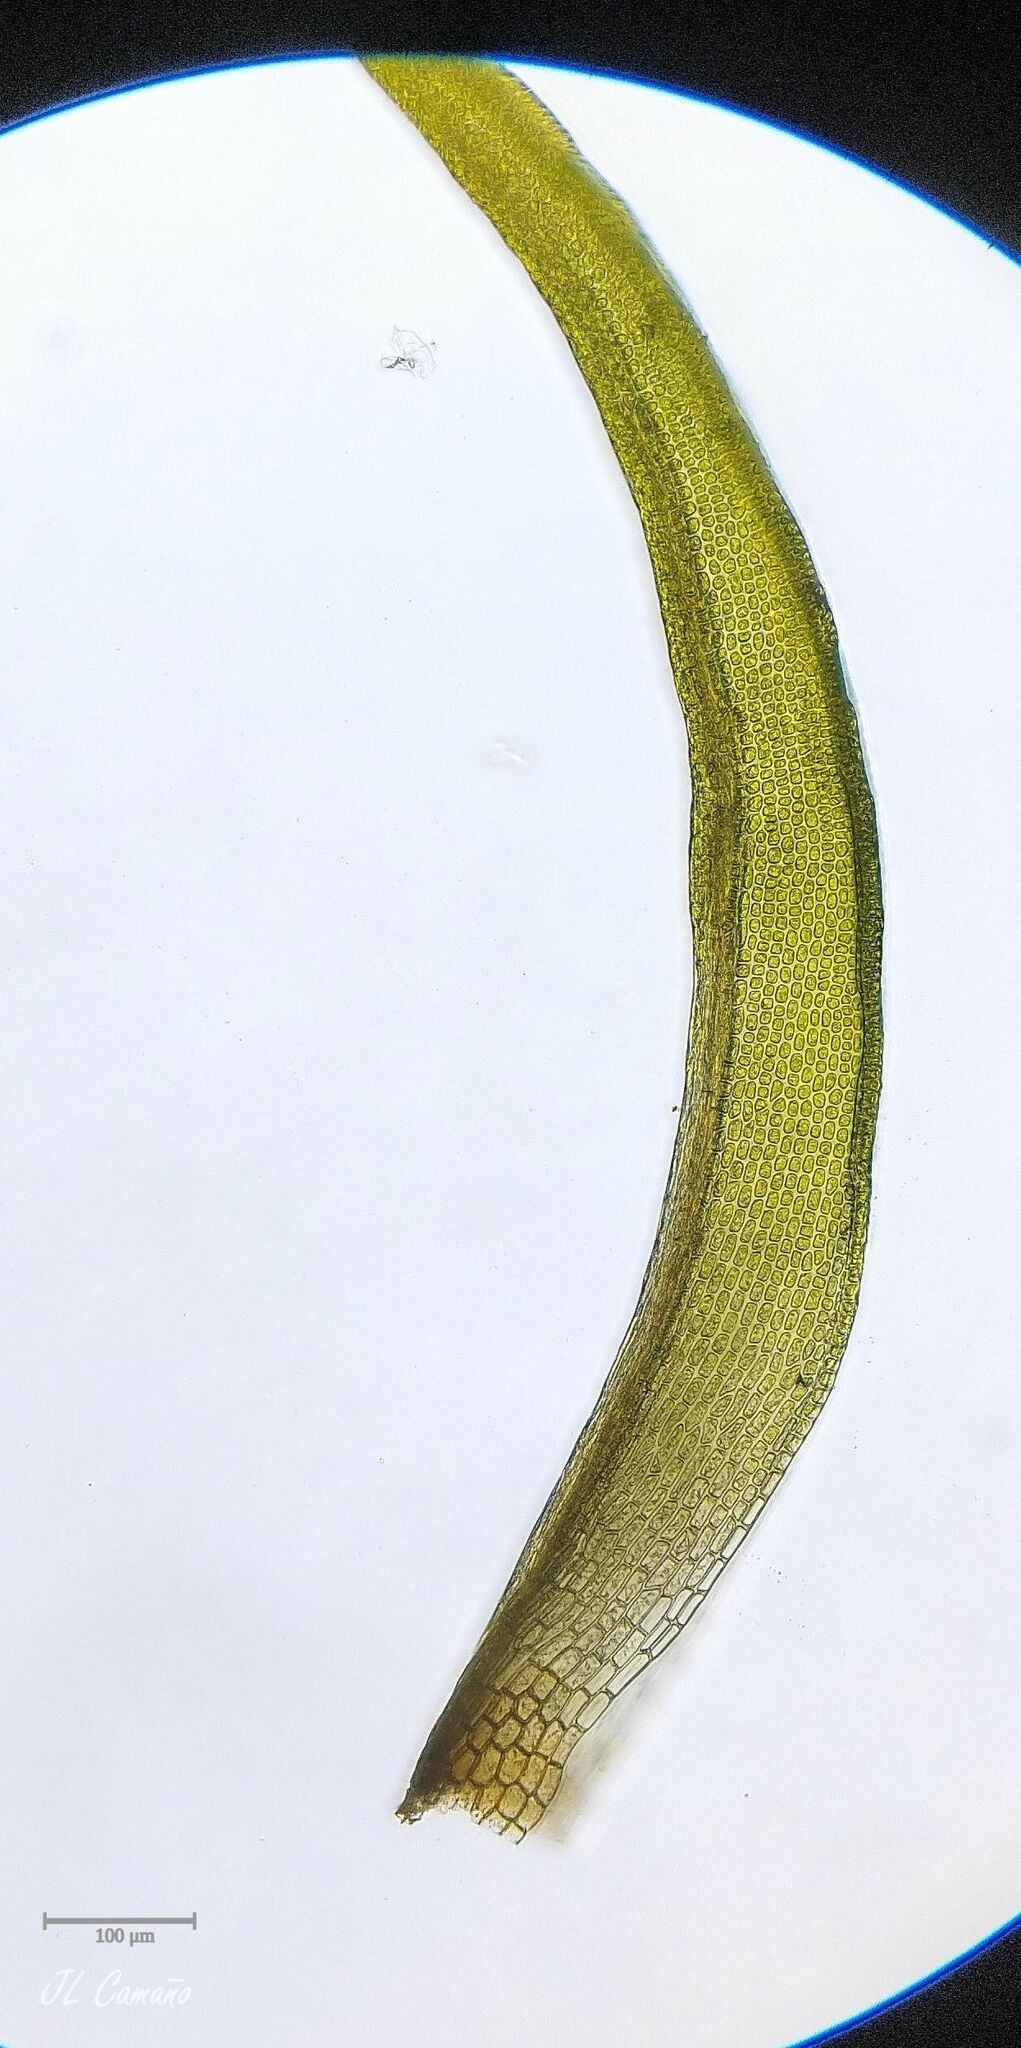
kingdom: Plantae
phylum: Bryophyta
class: Bryopsida
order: Dicranales
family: Rhabdoweisiaceae
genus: Dicranoweisia
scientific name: Dicranoweisia cirrata
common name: Common pincushion
